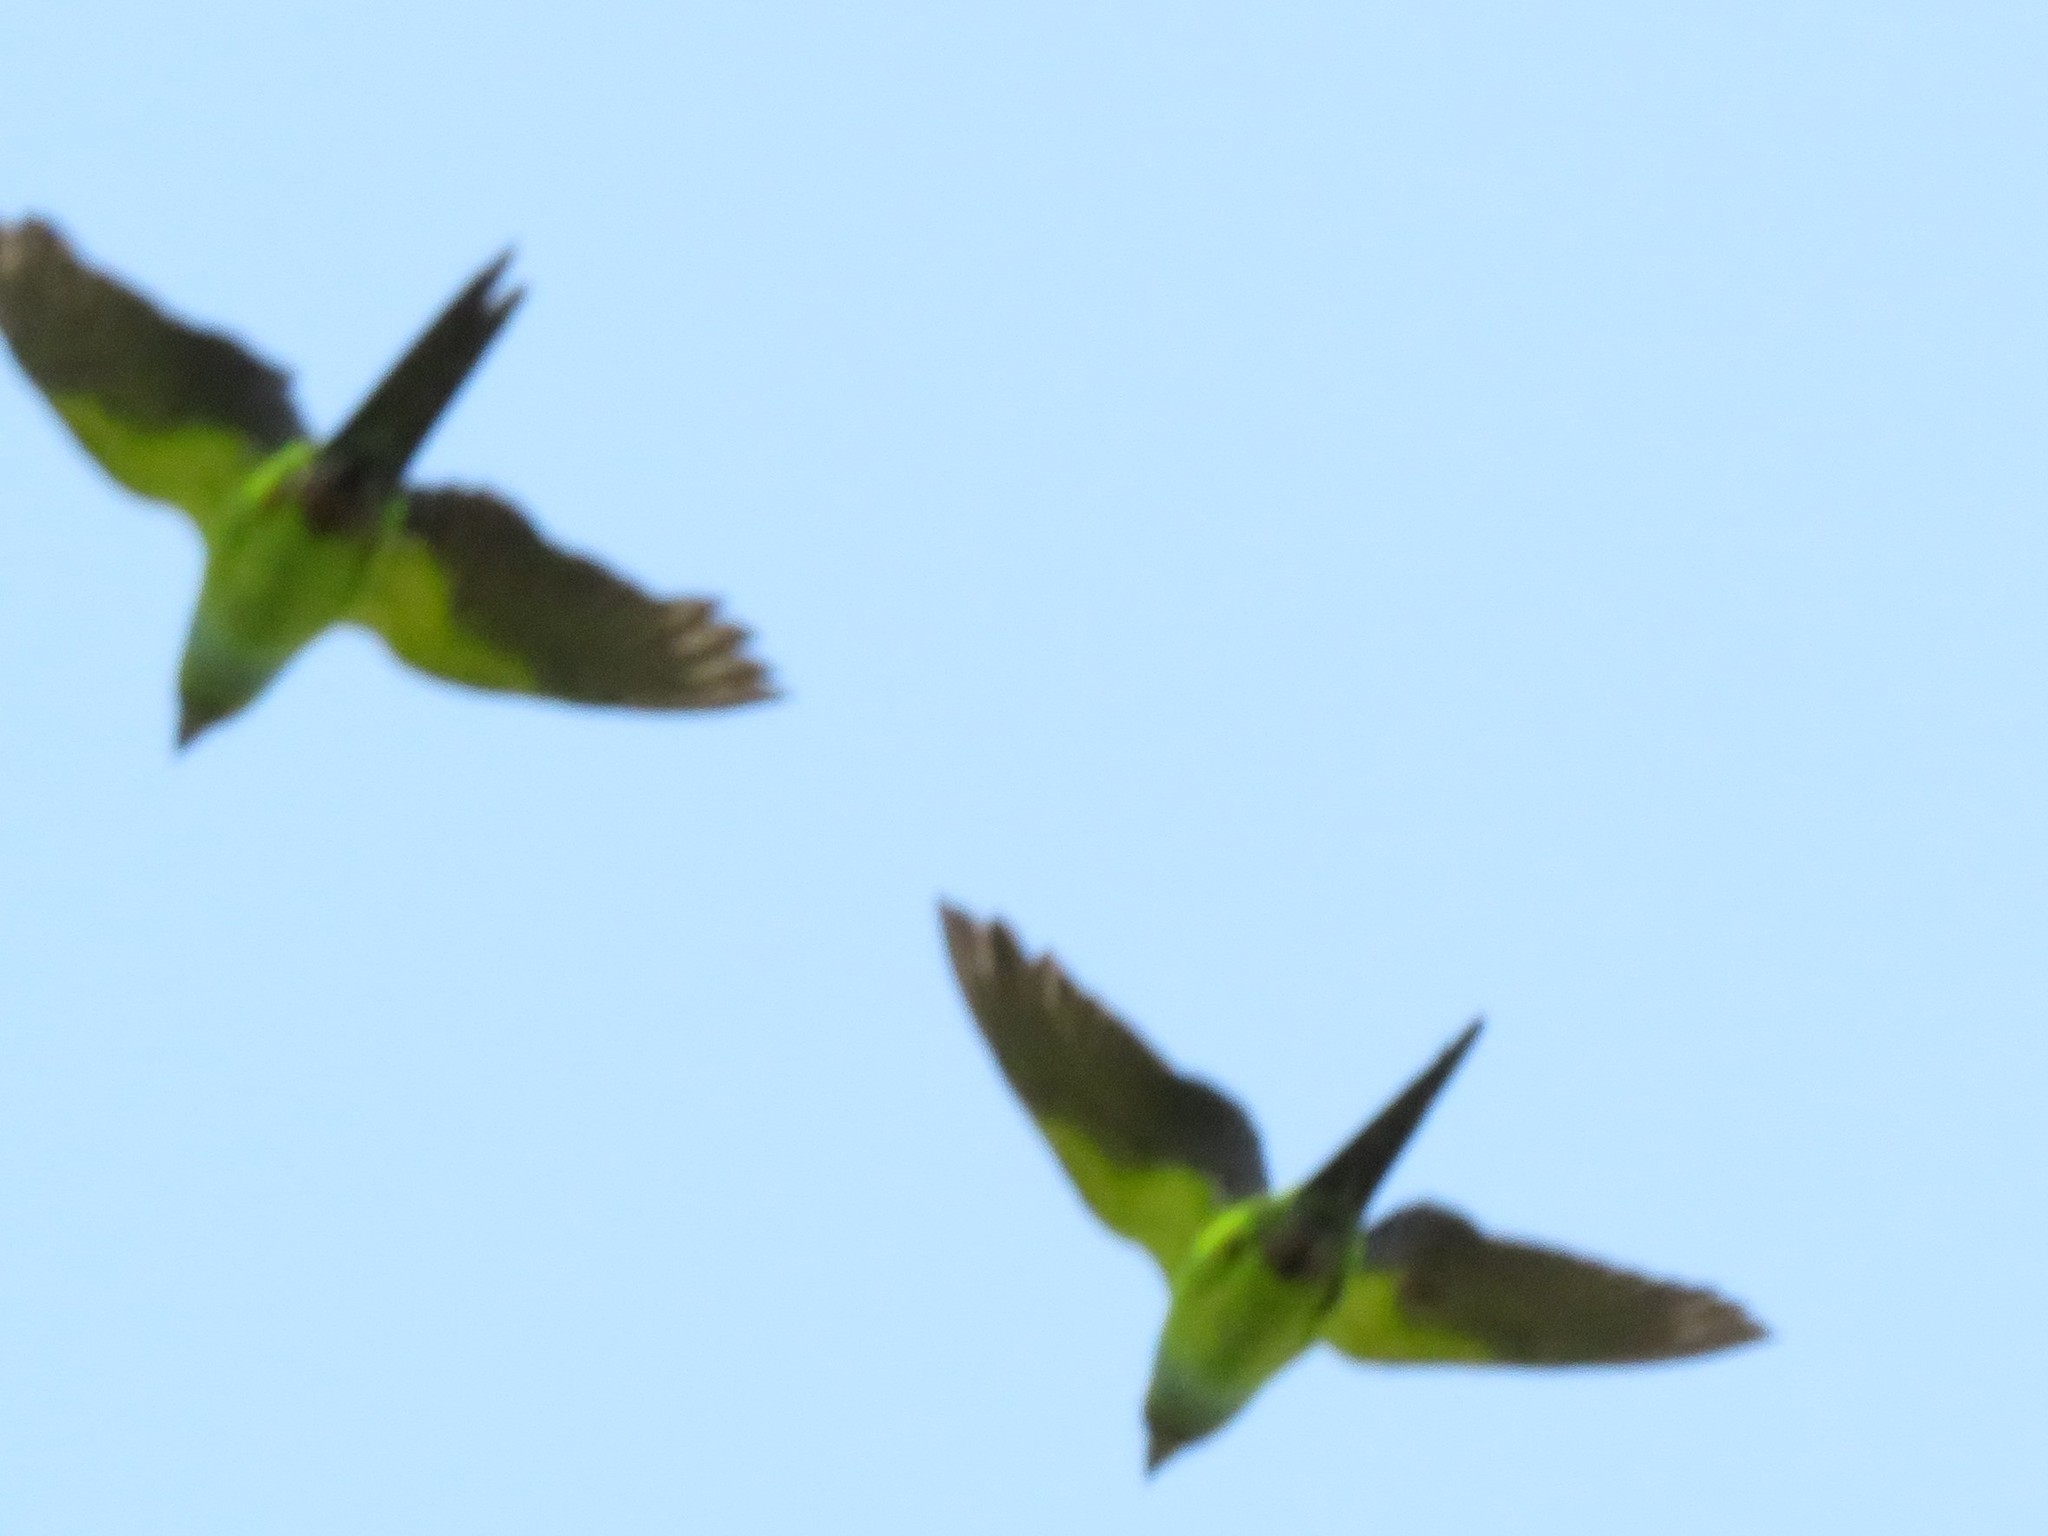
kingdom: Animalia
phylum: Chordata
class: Aves
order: Psittaciformes
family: Psittacidae
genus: Nandayus
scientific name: Nandayus nenday
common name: Nanday parakeet
